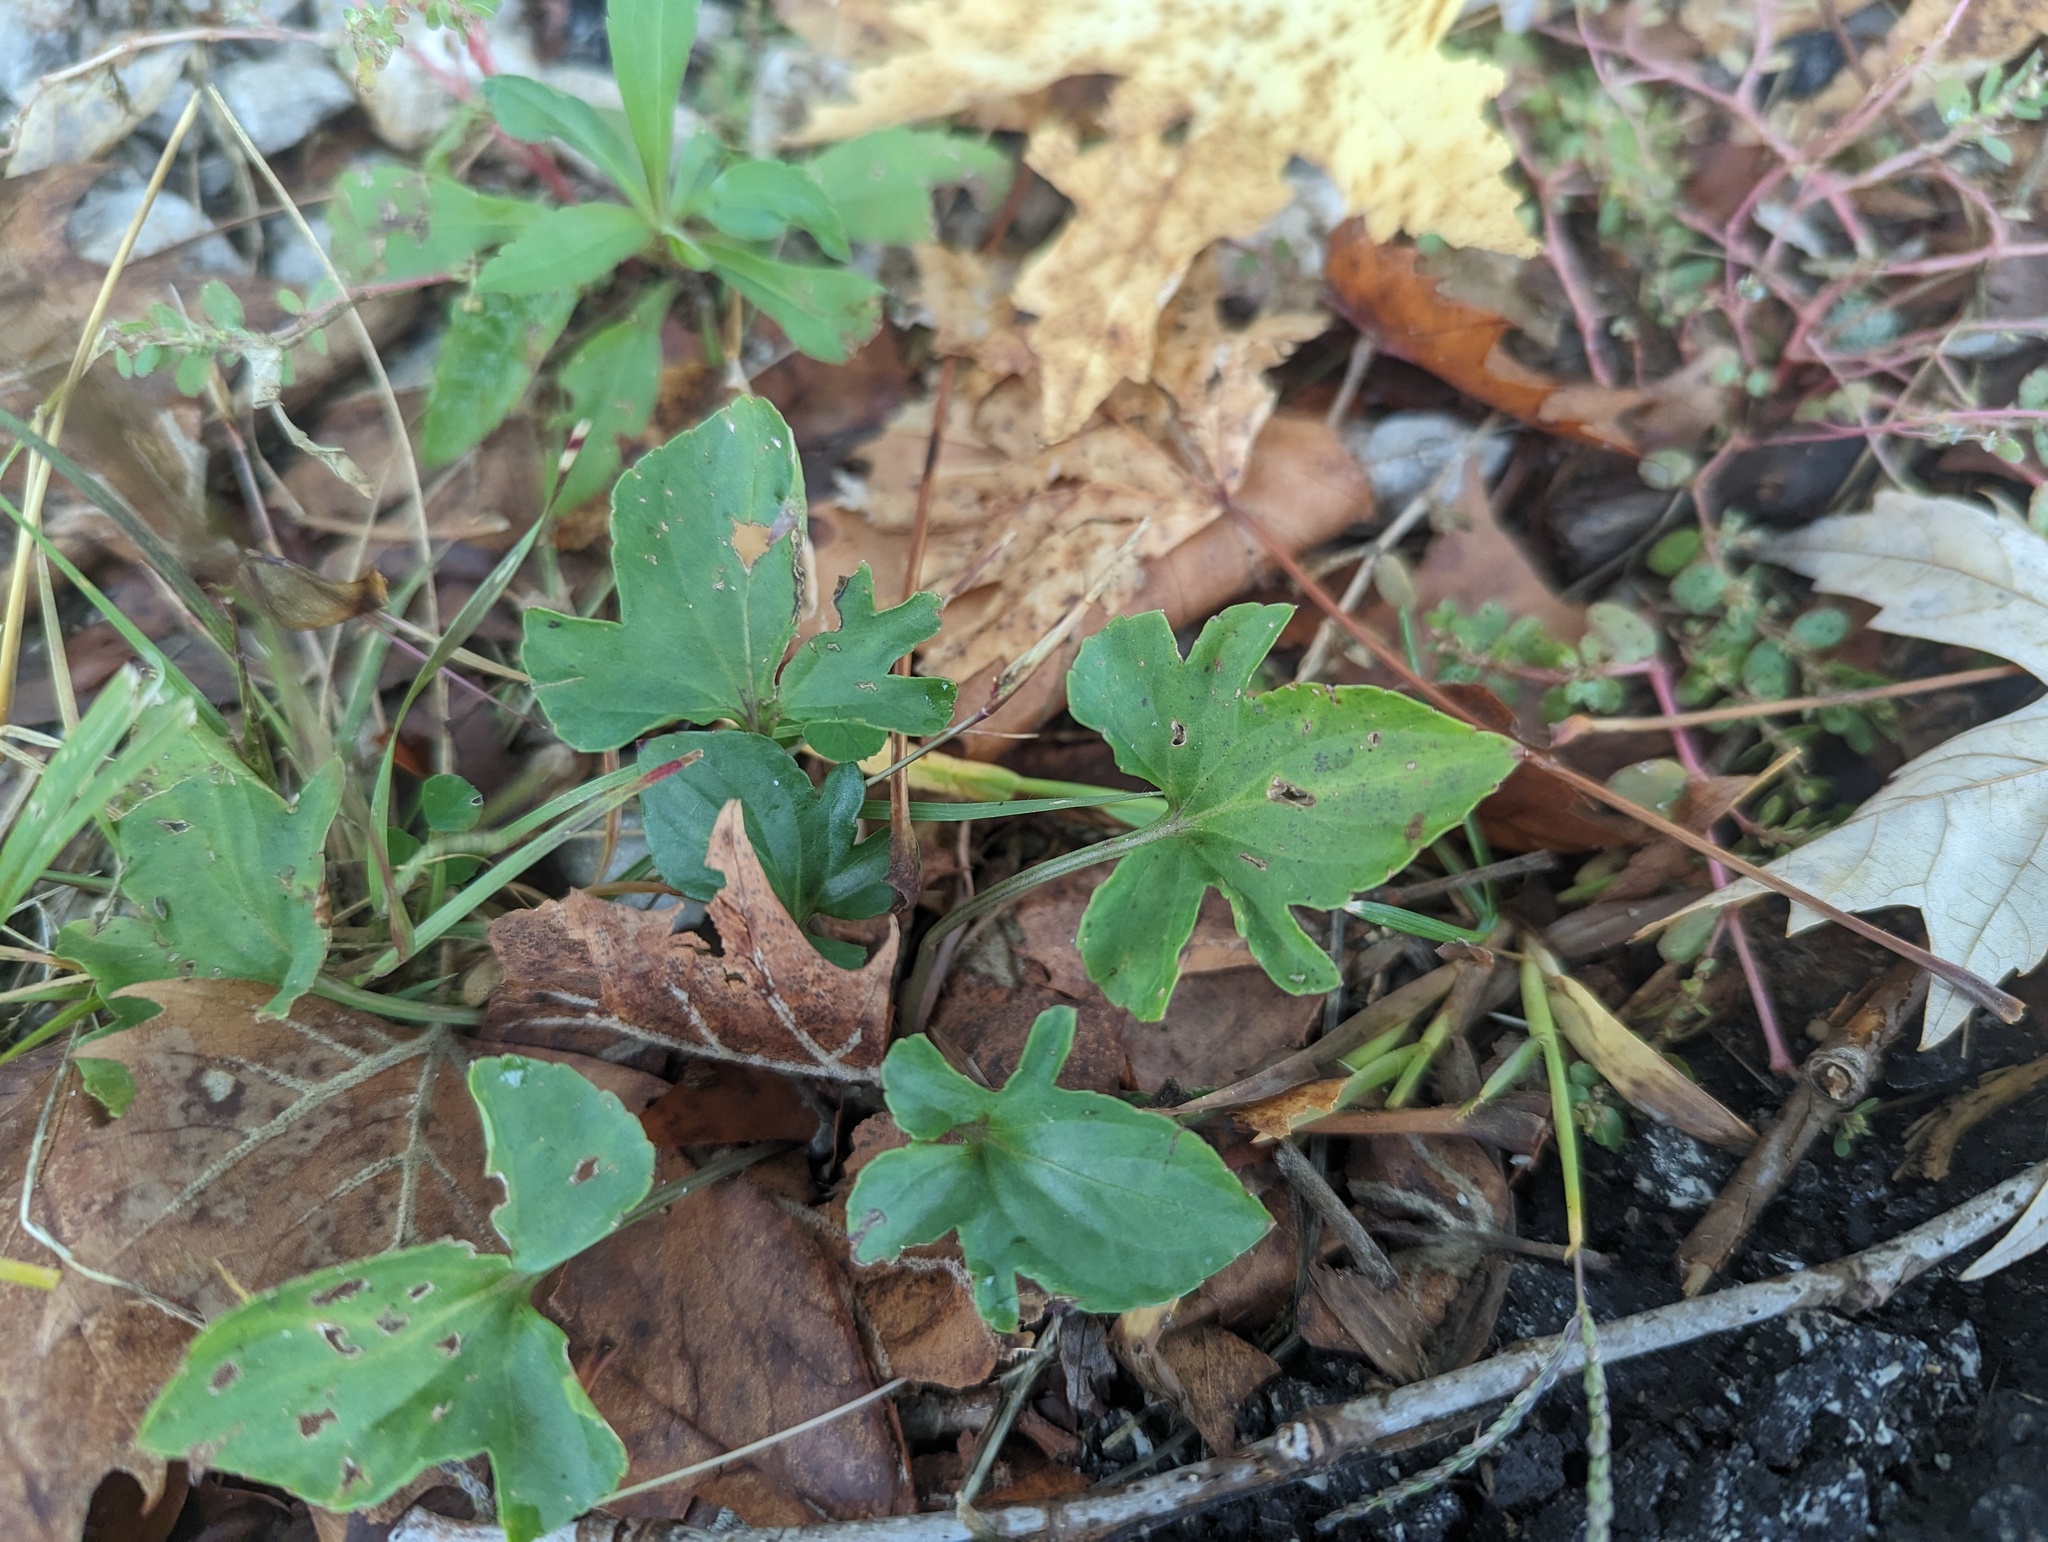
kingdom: Plantae
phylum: Tracheophyta
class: Magnoliopsida
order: Malpighiales
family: Violaceae
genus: Viola
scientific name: Viola viarum
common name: Twoflower violet
